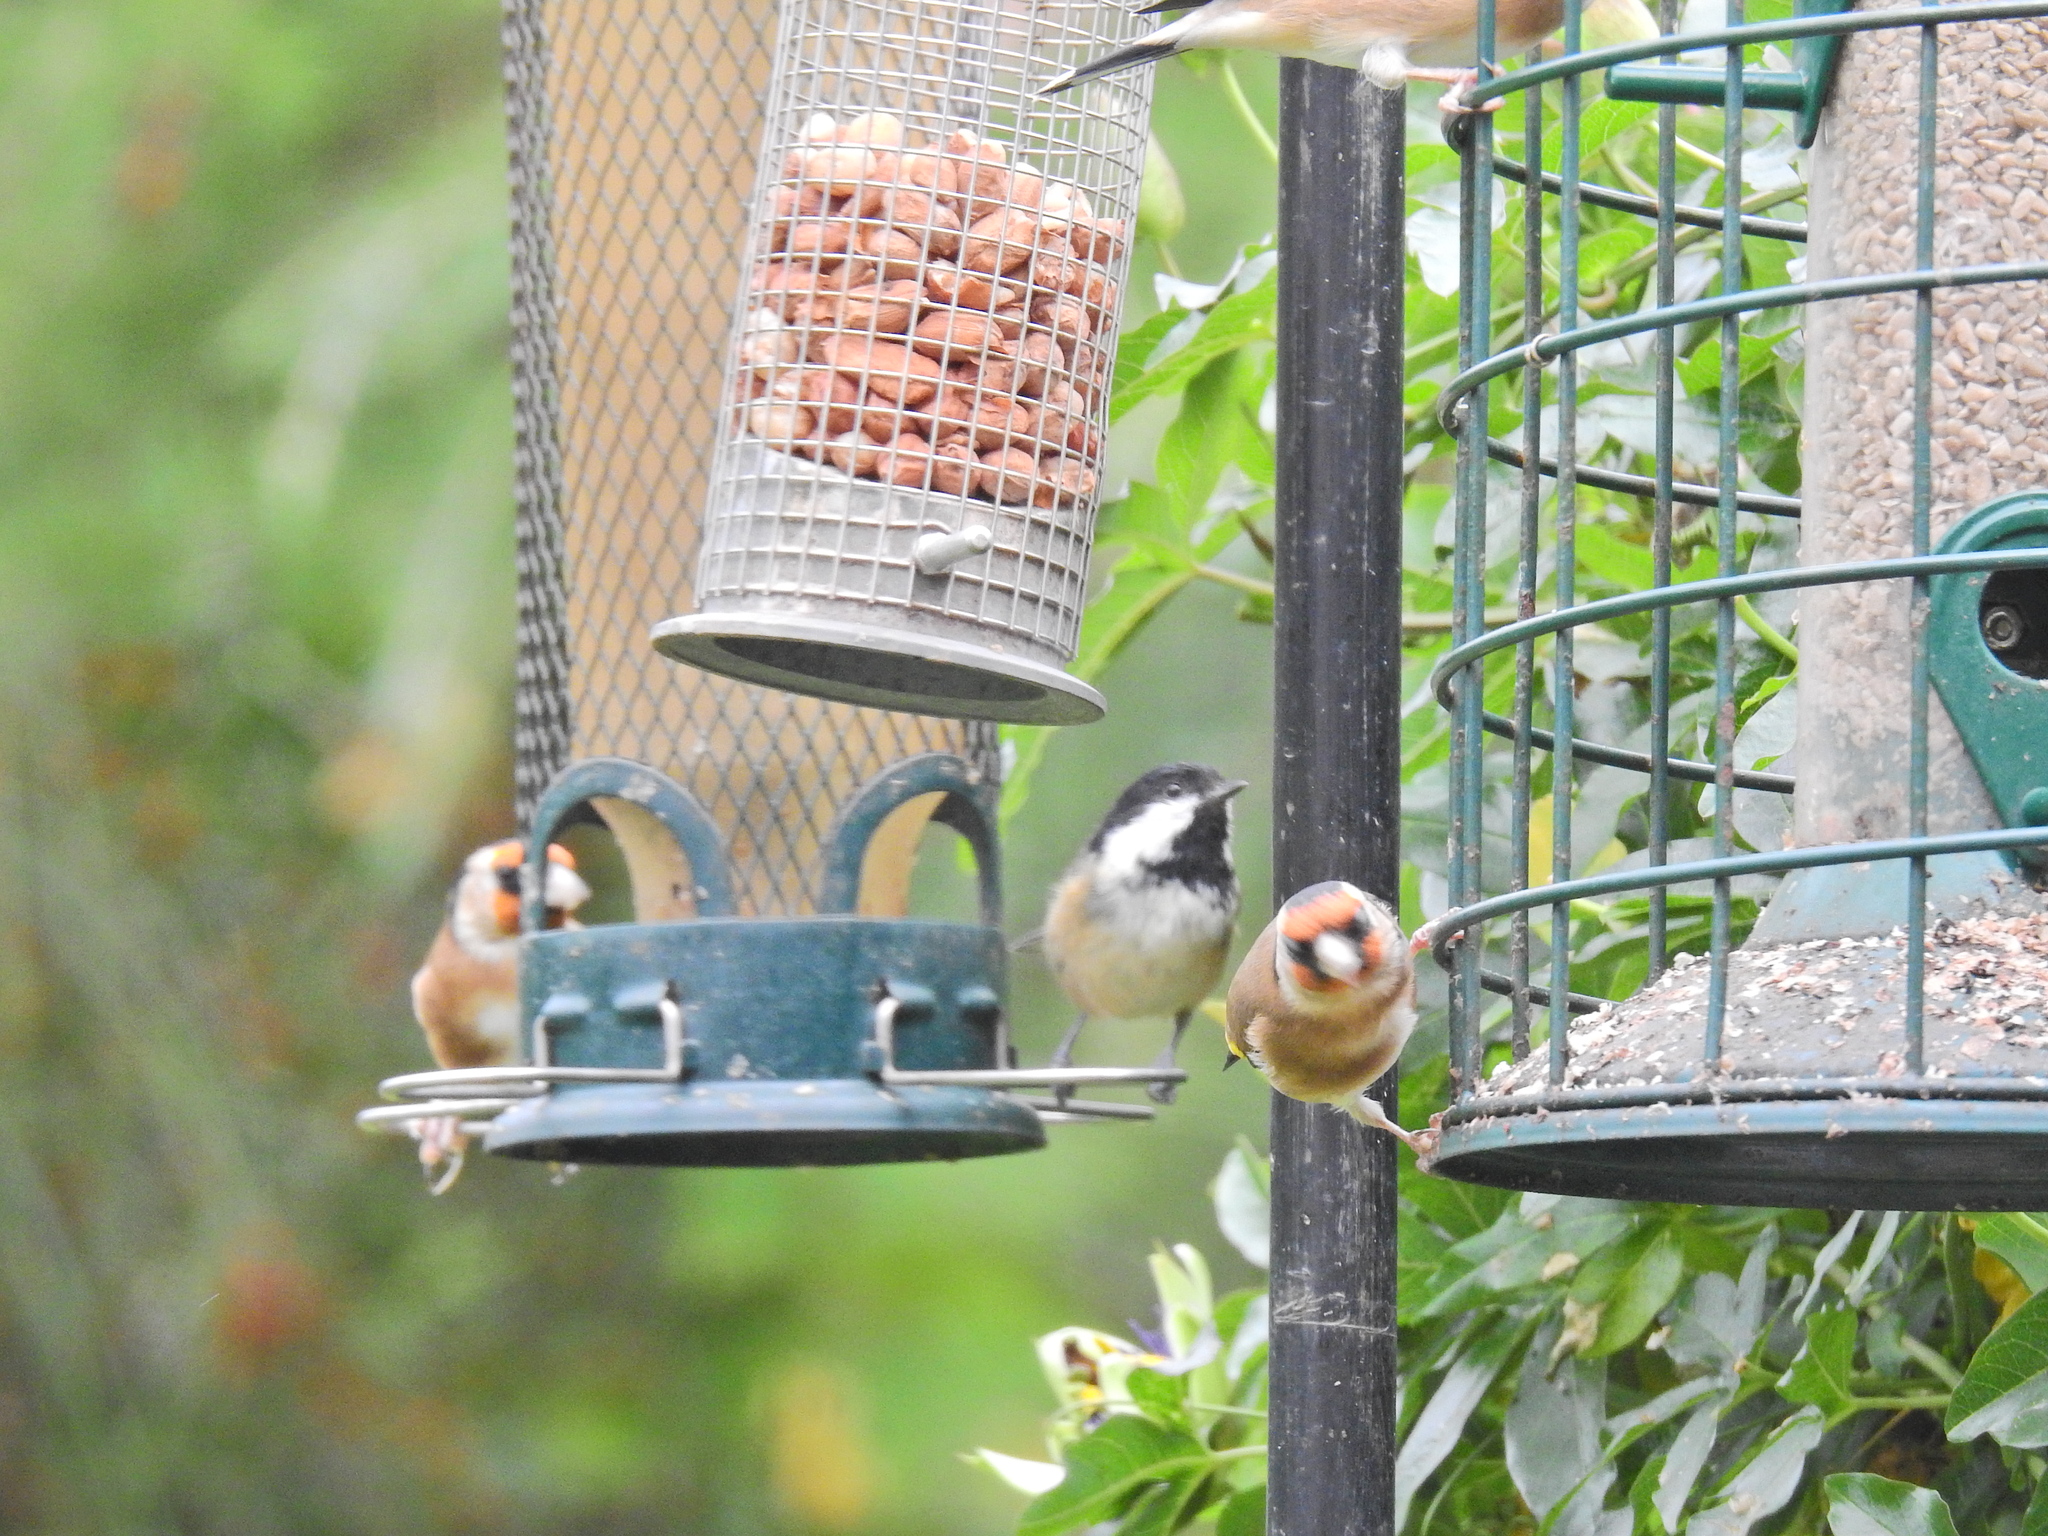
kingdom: Animalia
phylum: Chordata
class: Aves
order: Passeriformes
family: Paridae
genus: Periparus
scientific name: Periparus ater
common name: Coal tit
